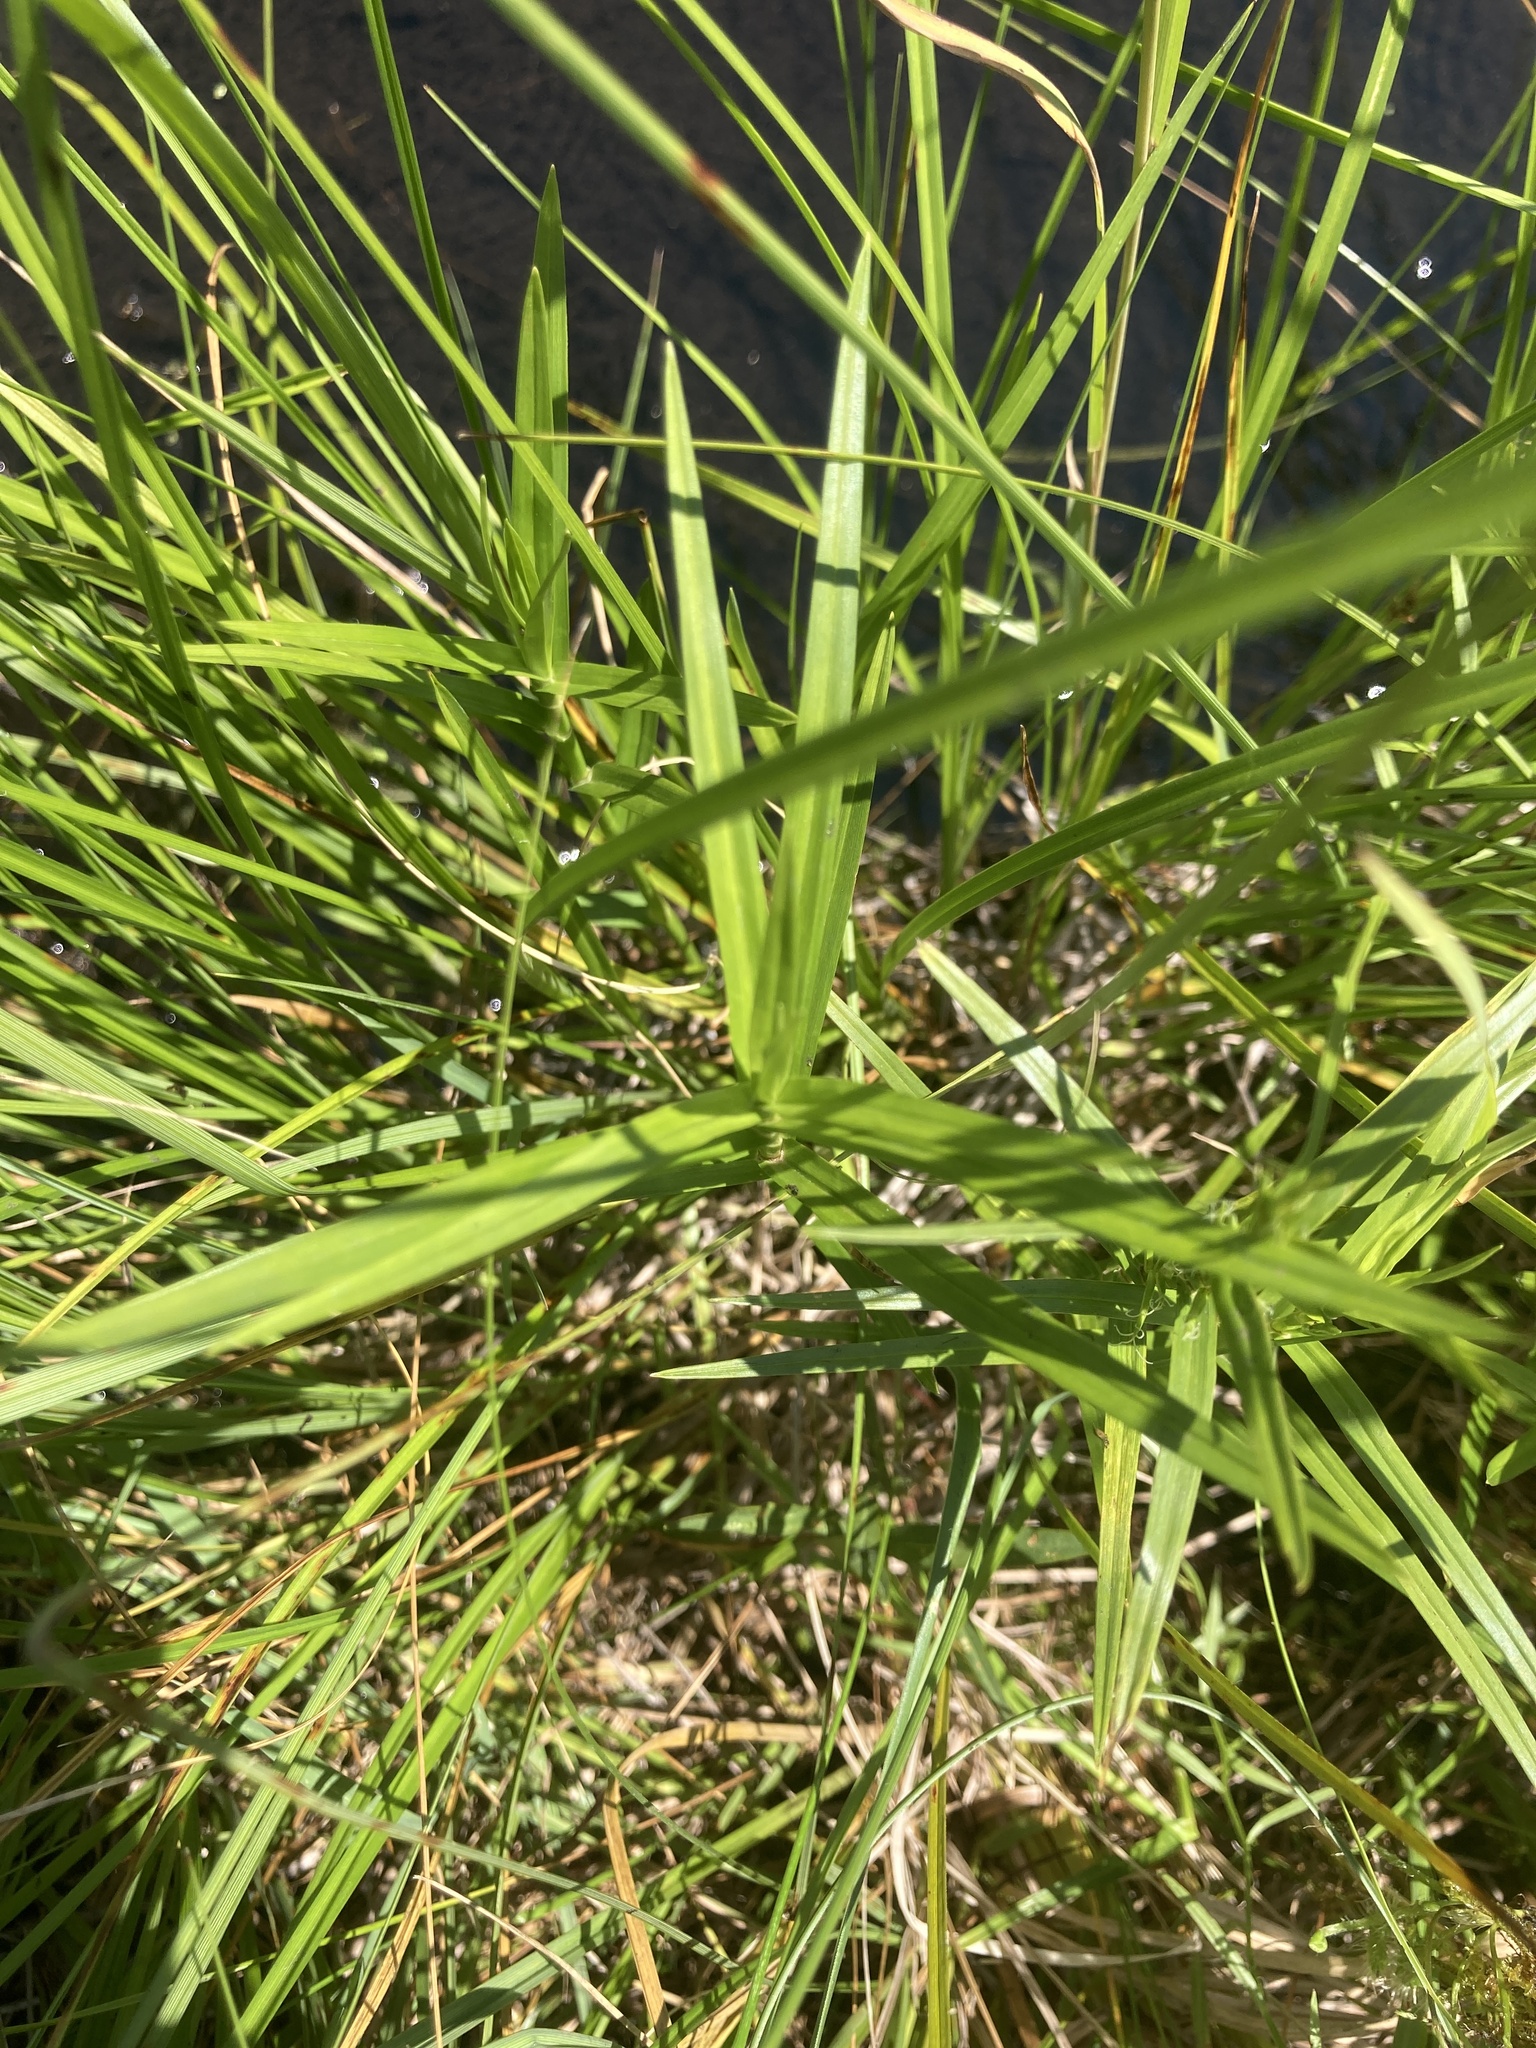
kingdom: Plantae
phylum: Tracheophyta
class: Liliopsida
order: Poales
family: Cyperaceae
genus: Dulichium
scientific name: Dulichium arundinaceum
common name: Three-way sedge
